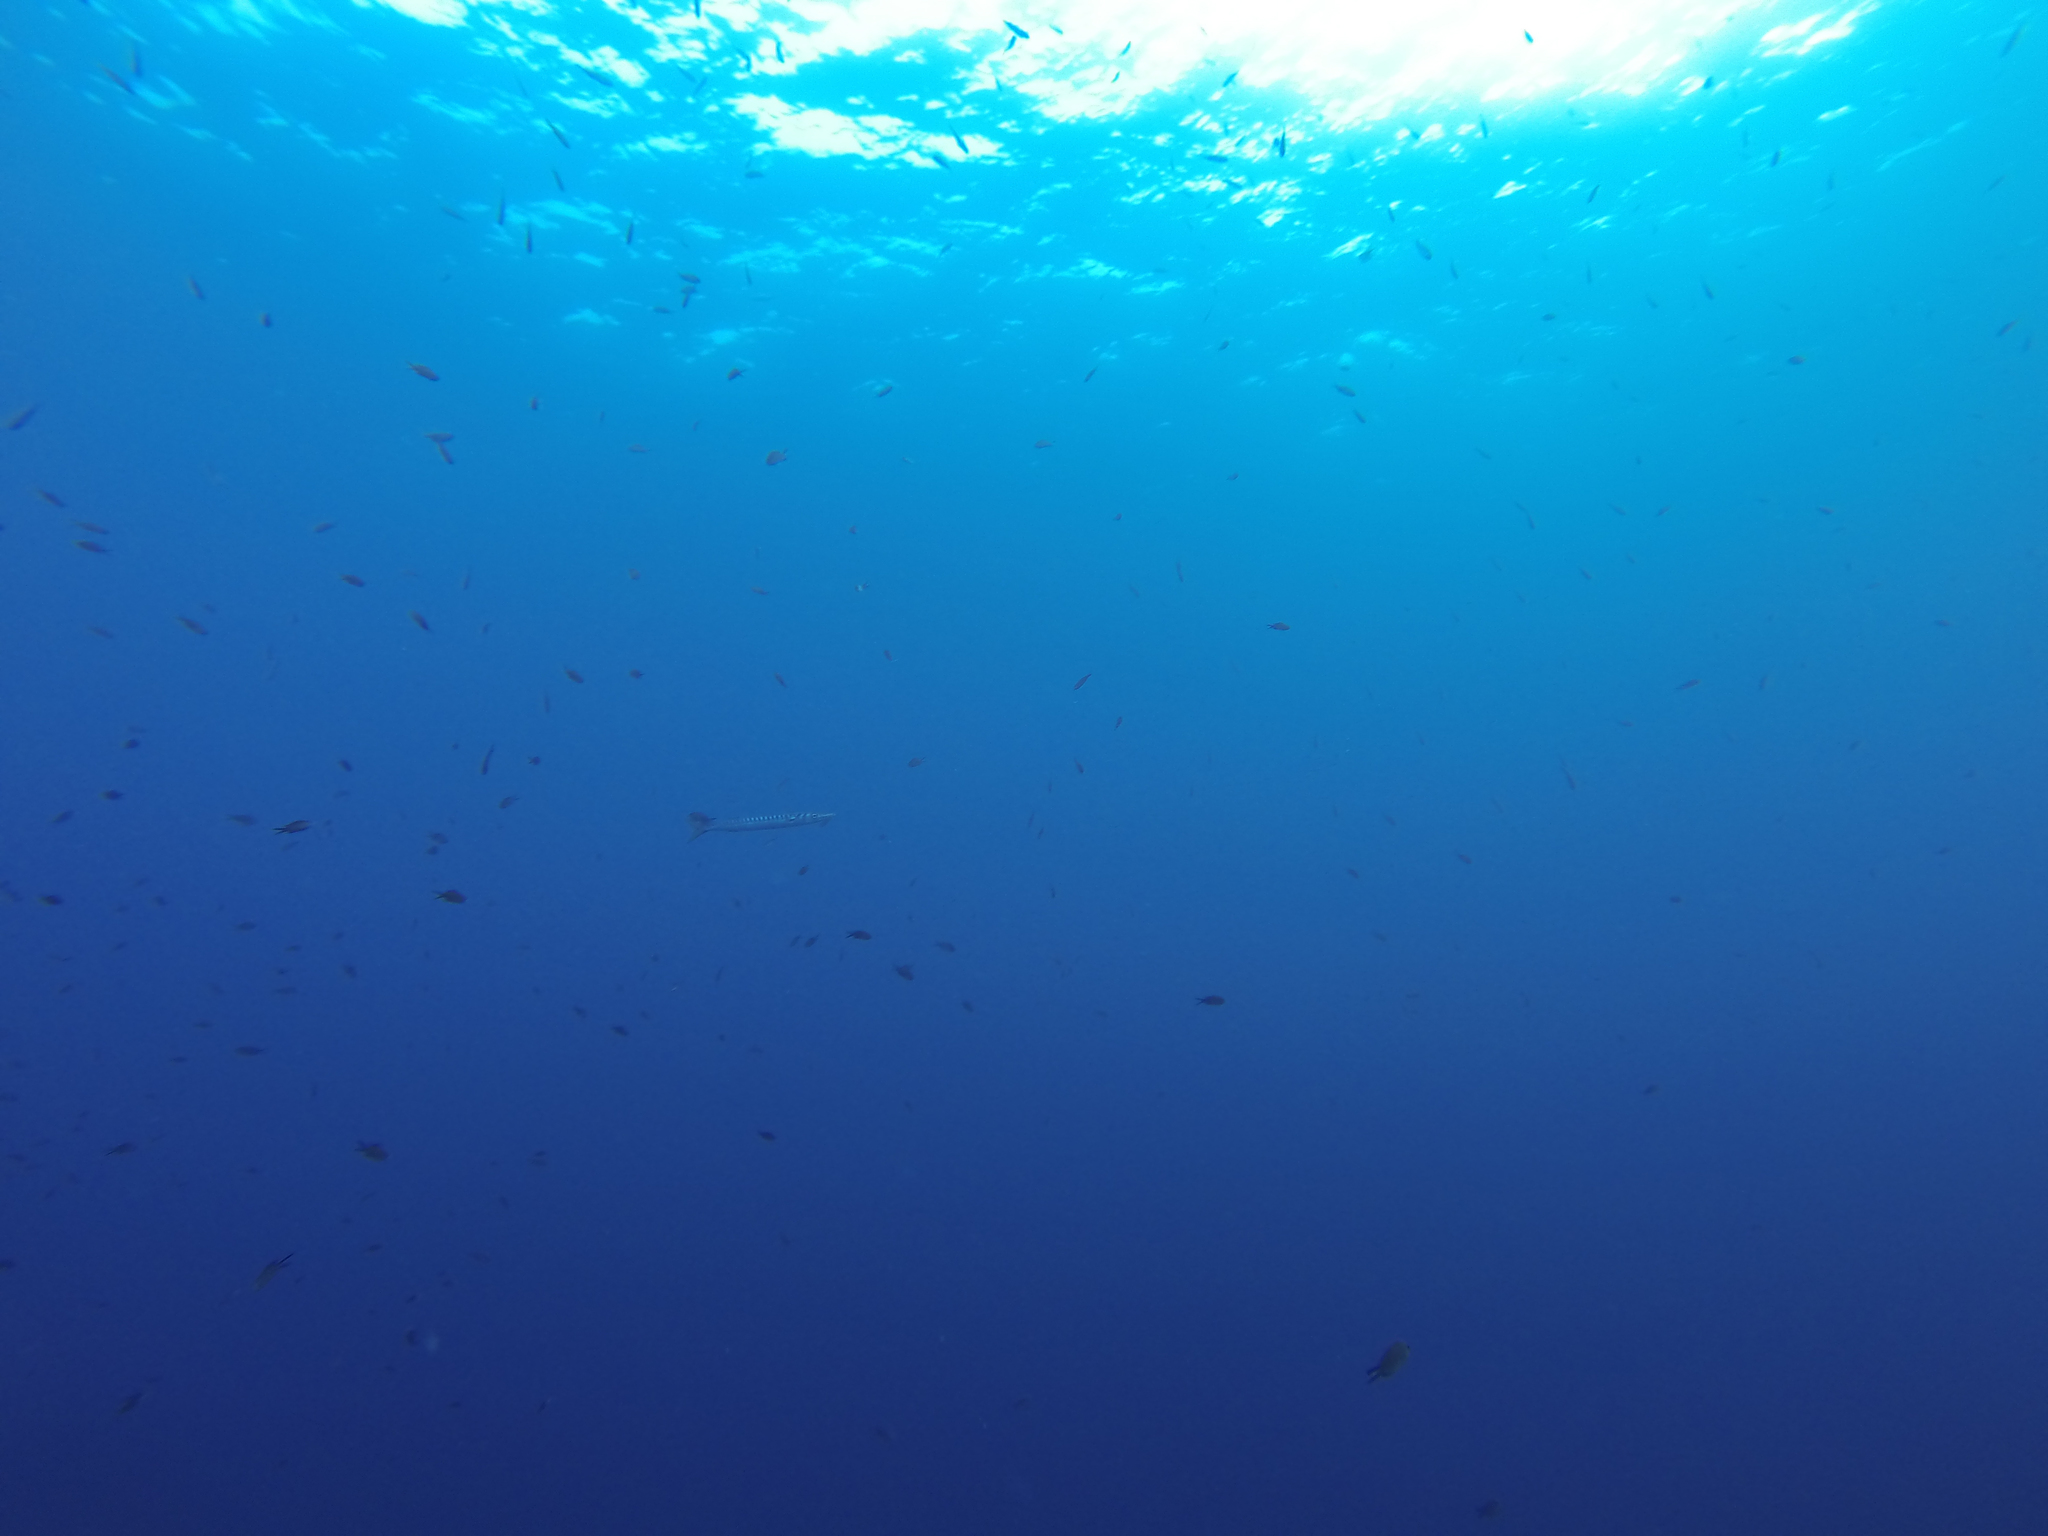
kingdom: Animalia
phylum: Chordata
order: Perciformes
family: Sphyraenidae
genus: Sphyraena
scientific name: Sphyraena viridensis
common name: Yellowmouth barracuda
